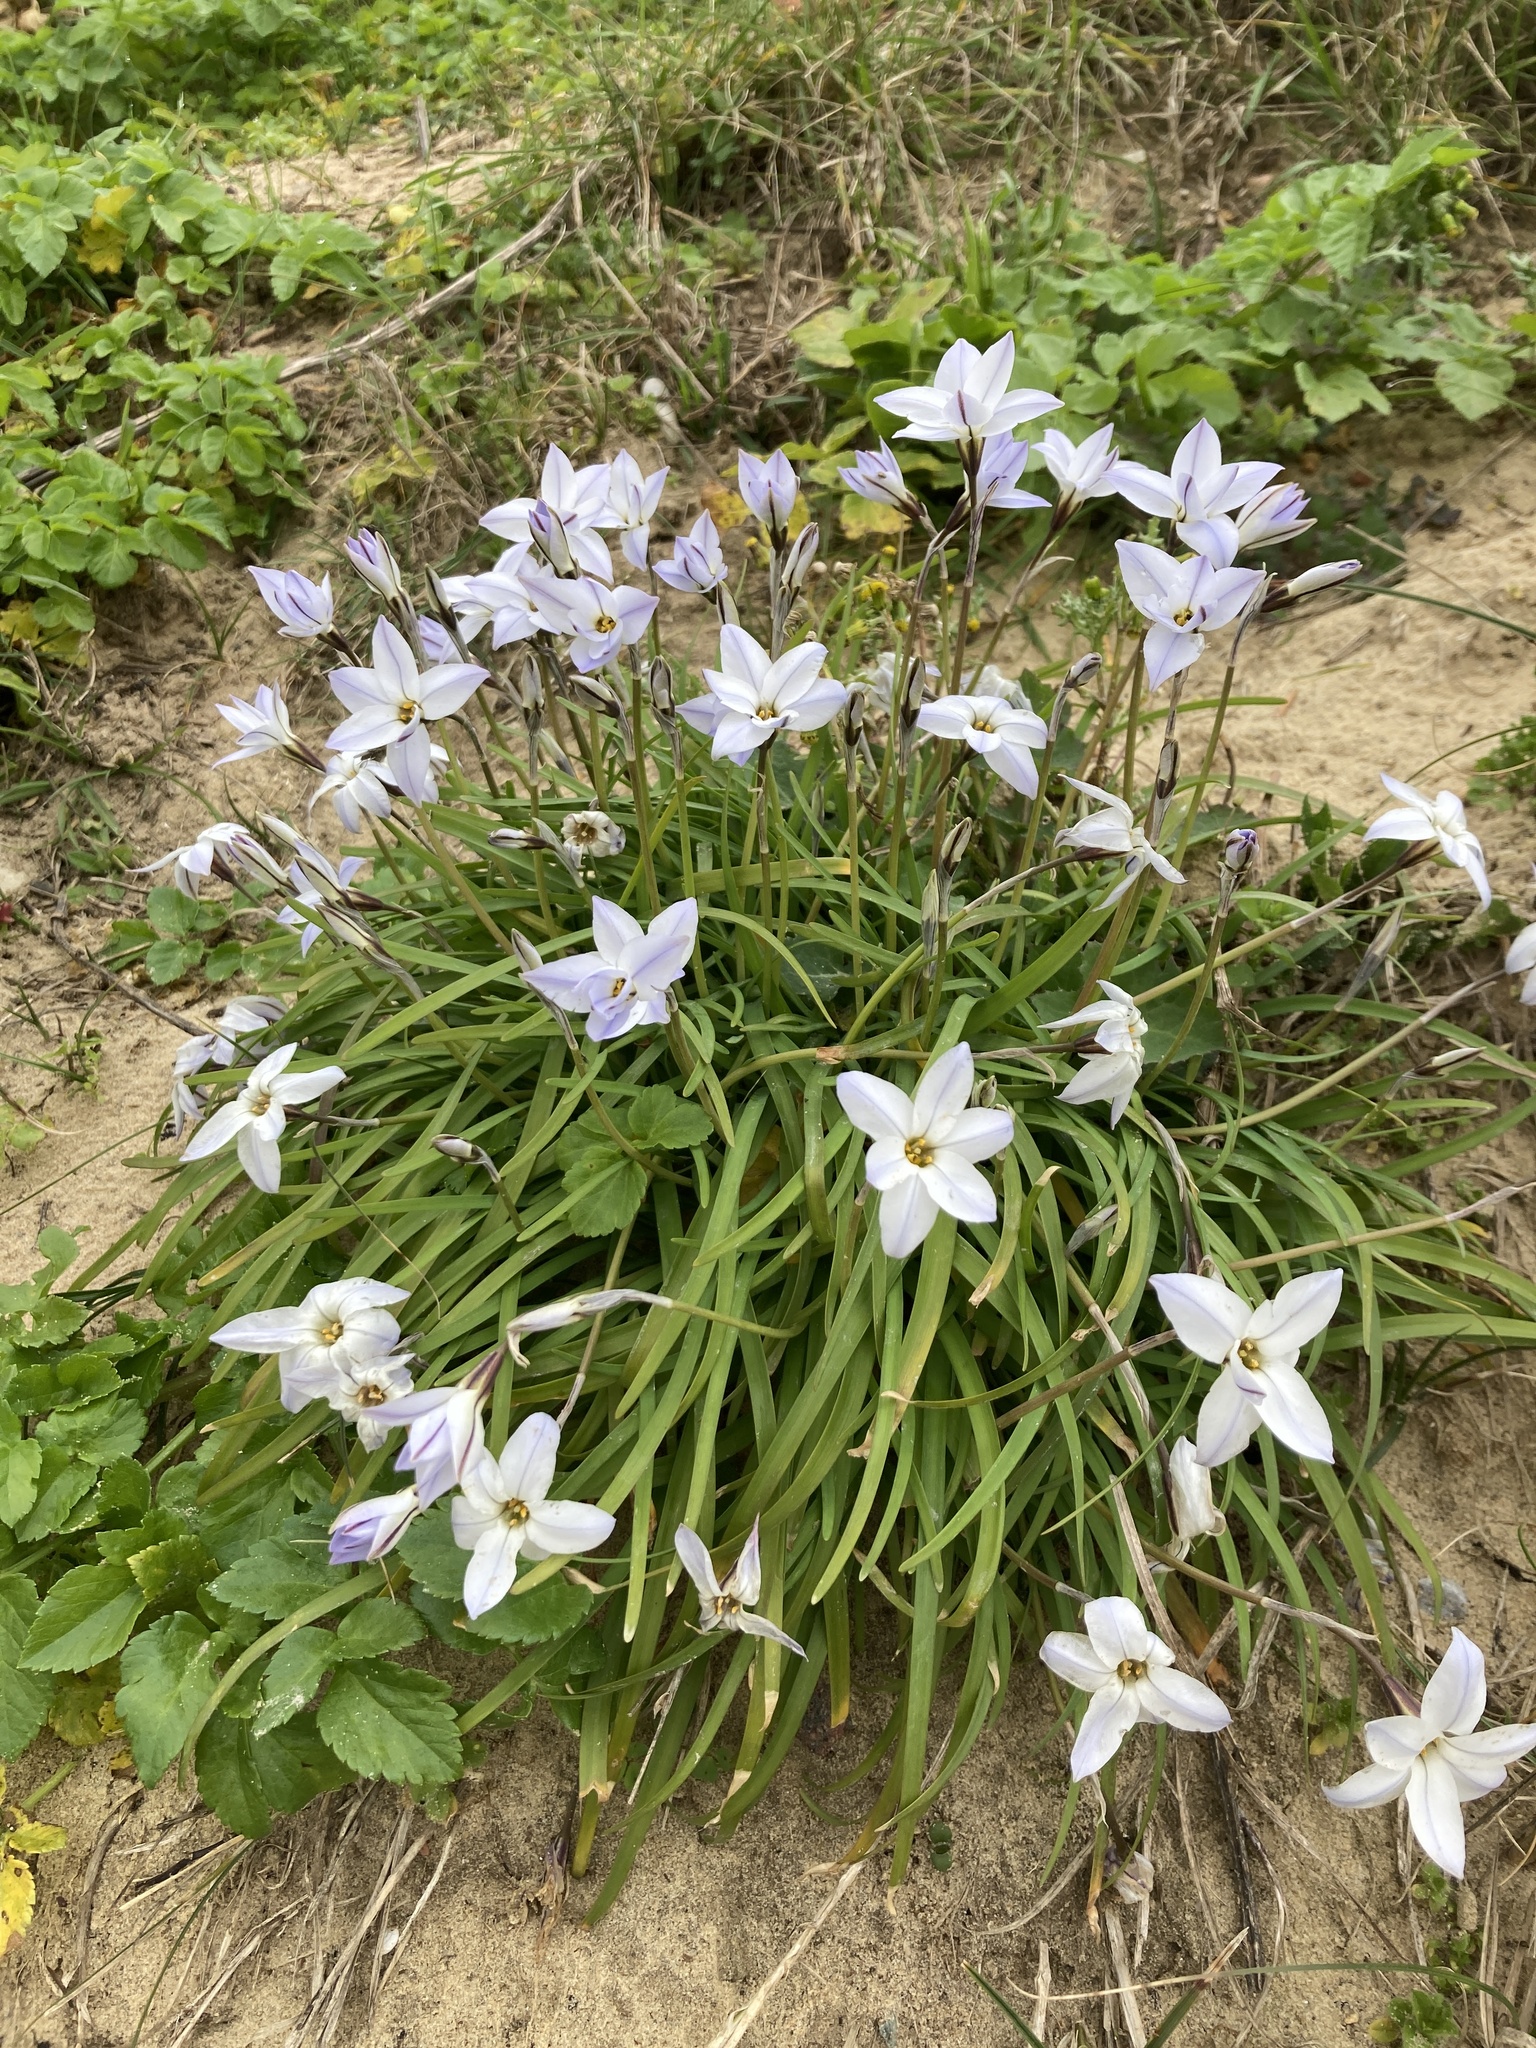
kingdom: Plantae
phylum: Tracheophyta
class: Liliopsida
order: Asparagales
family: Amaryllidaceae
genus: Ipheion
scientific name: Ipheion uniflorum
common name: Spring starflower
